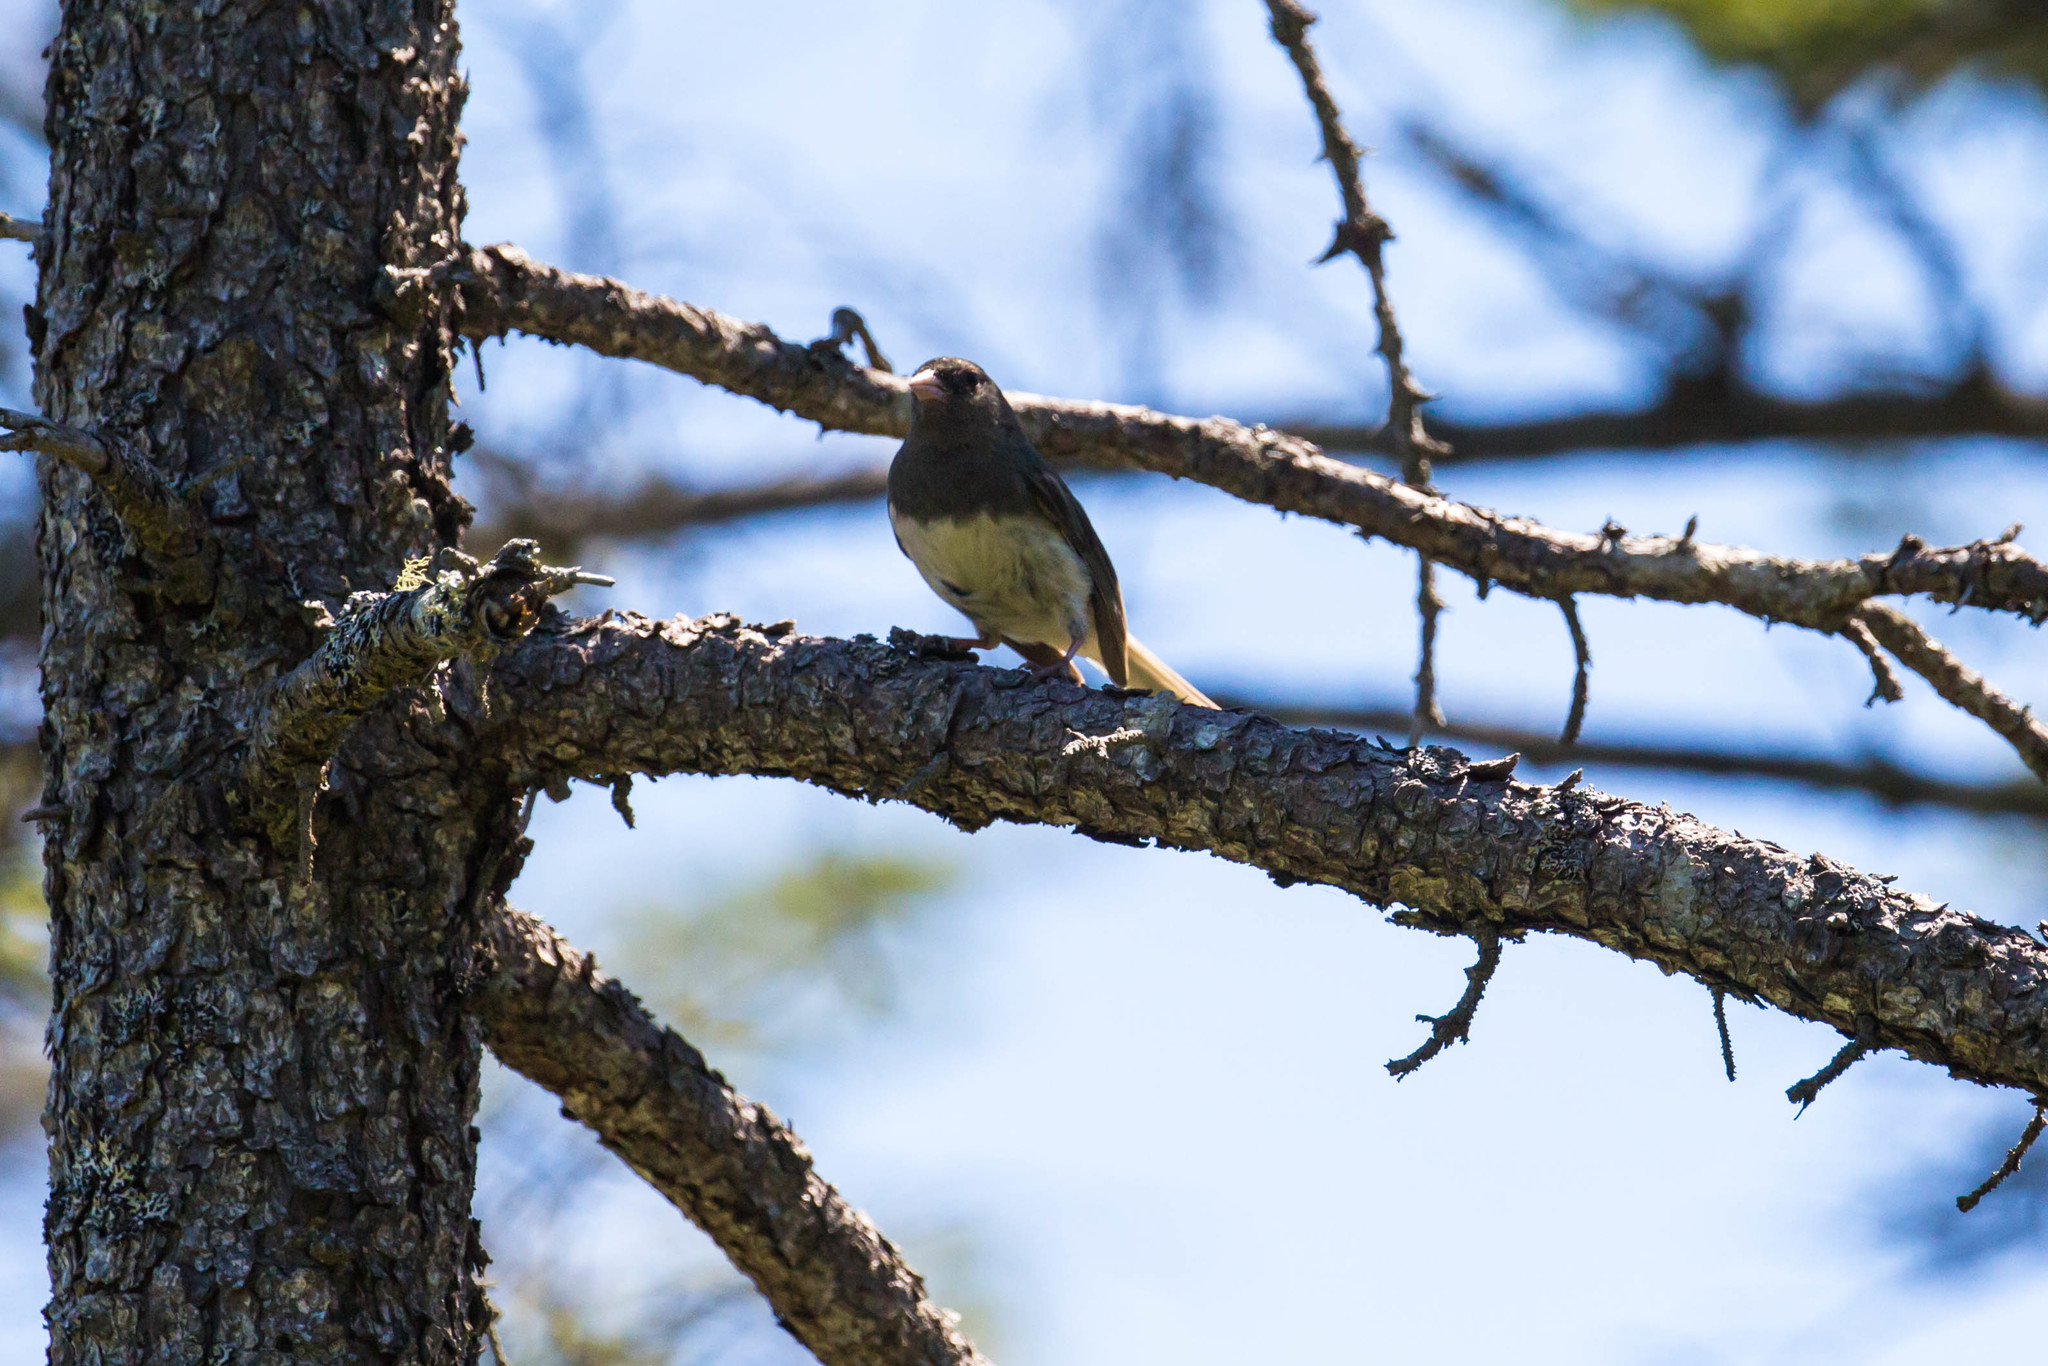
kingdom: Animalia
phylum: Chordata
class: Aves
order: Passeriformes
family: Passerellidae
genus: Junco
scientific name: Junco hyemalis
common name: Dark-eyed junco
